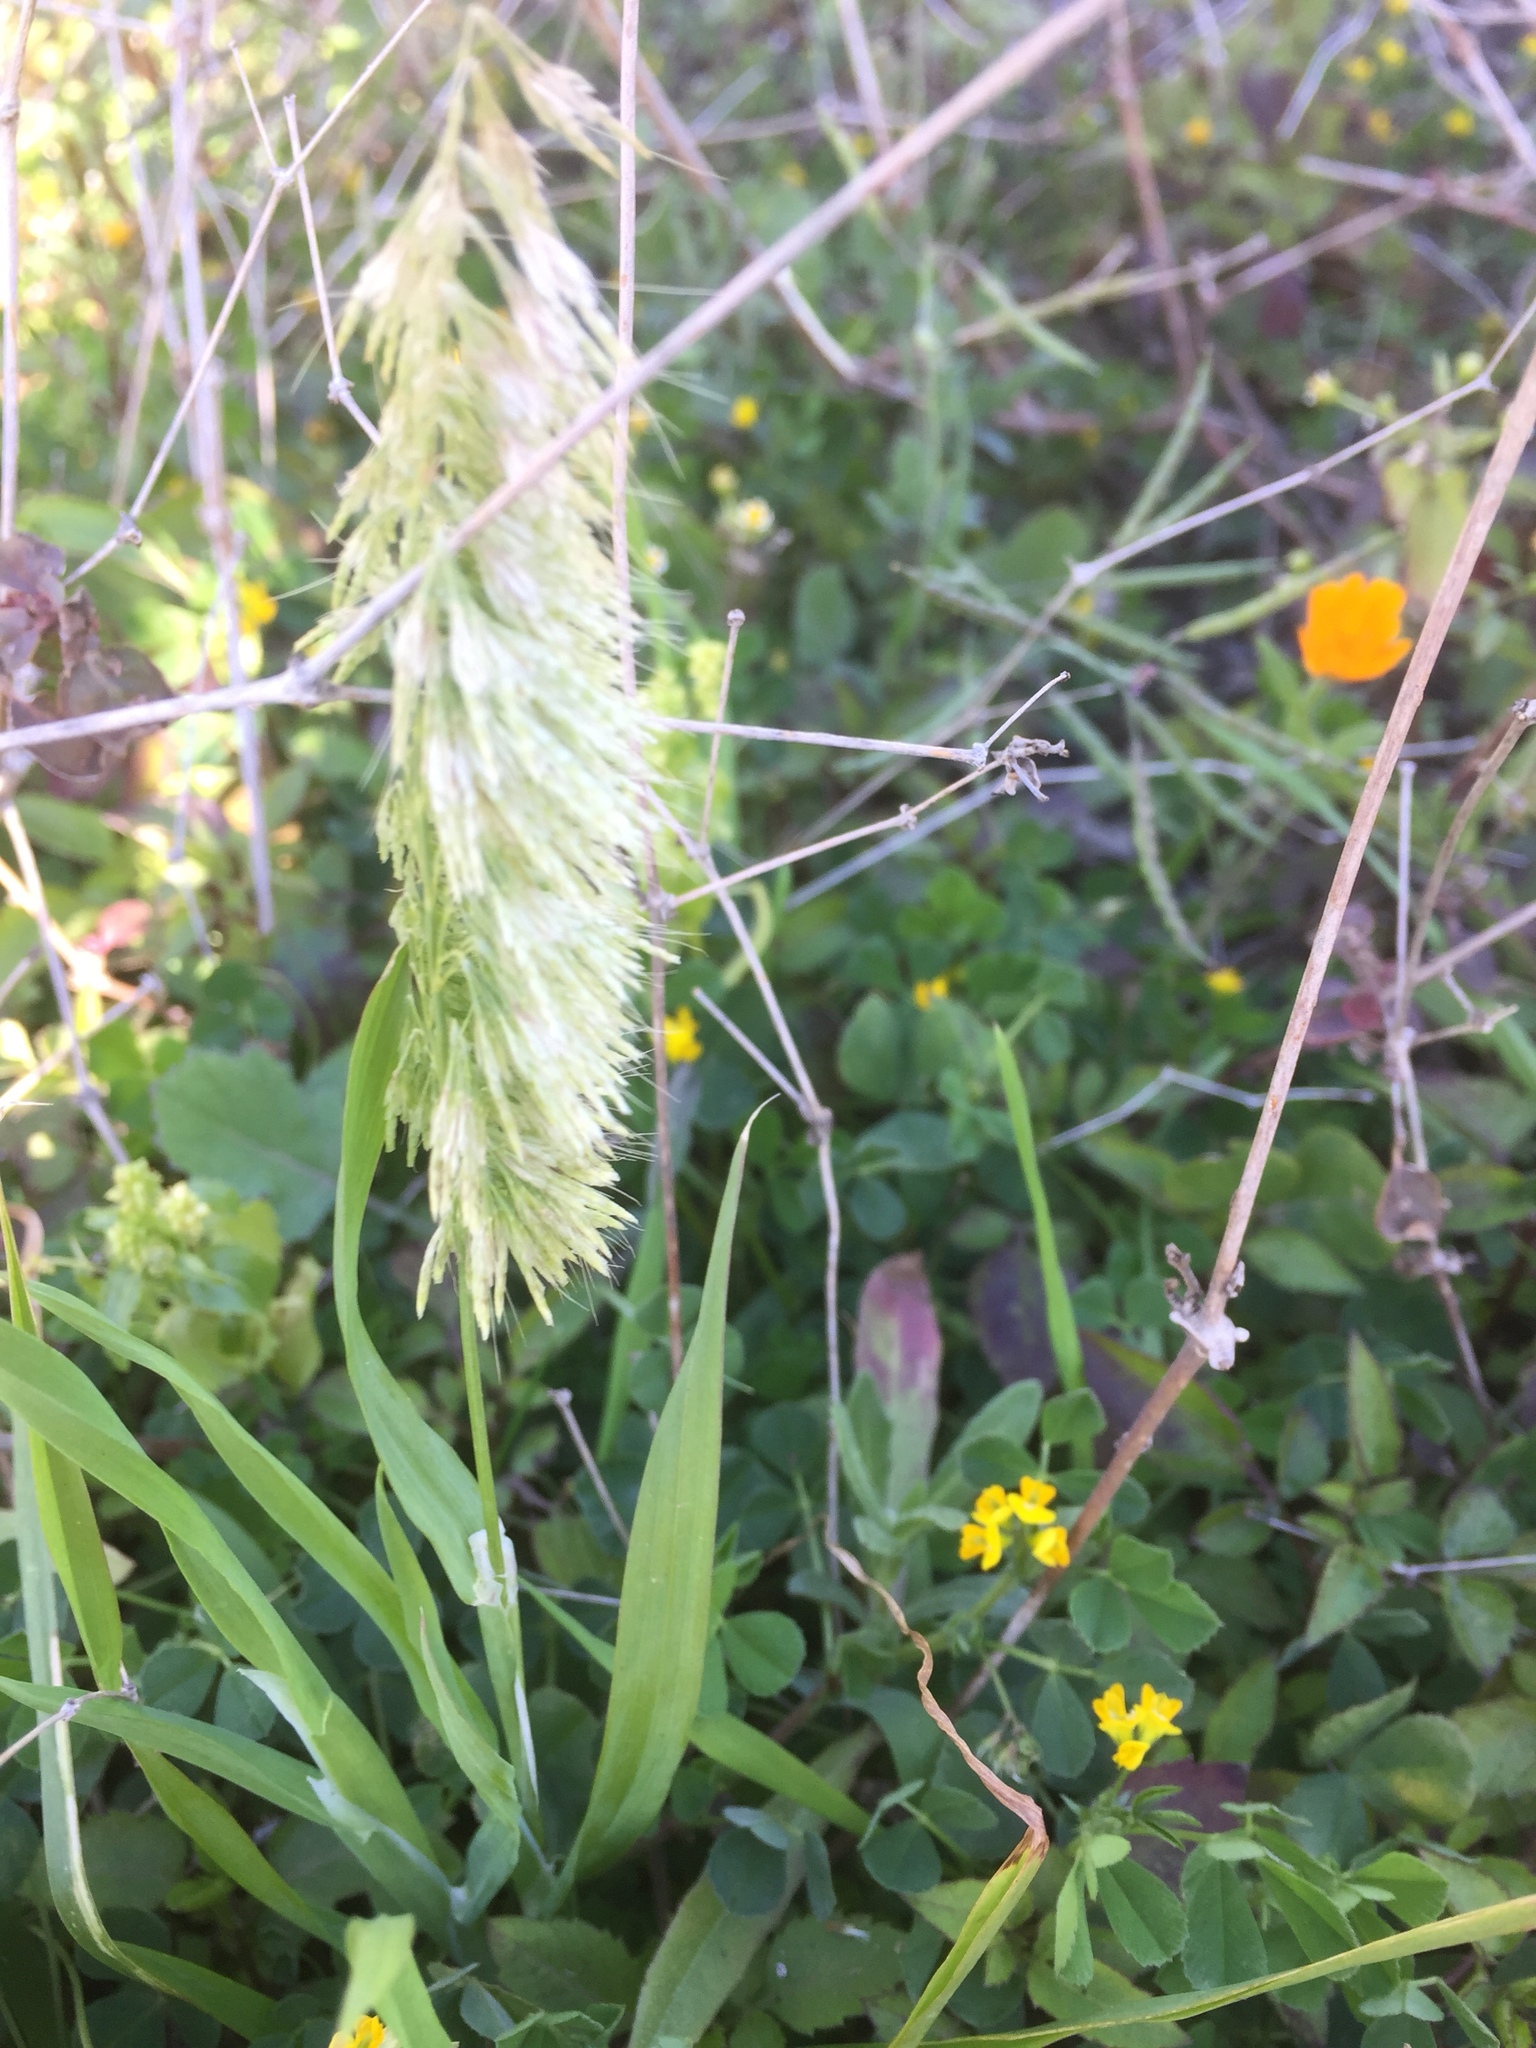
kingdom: Plantae
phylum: Tracheophyta
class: Liliopsida
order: Poales
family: Poaceae
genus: Lamarckia
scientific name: Lamarckia aurea
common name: Golden dog's-tail
